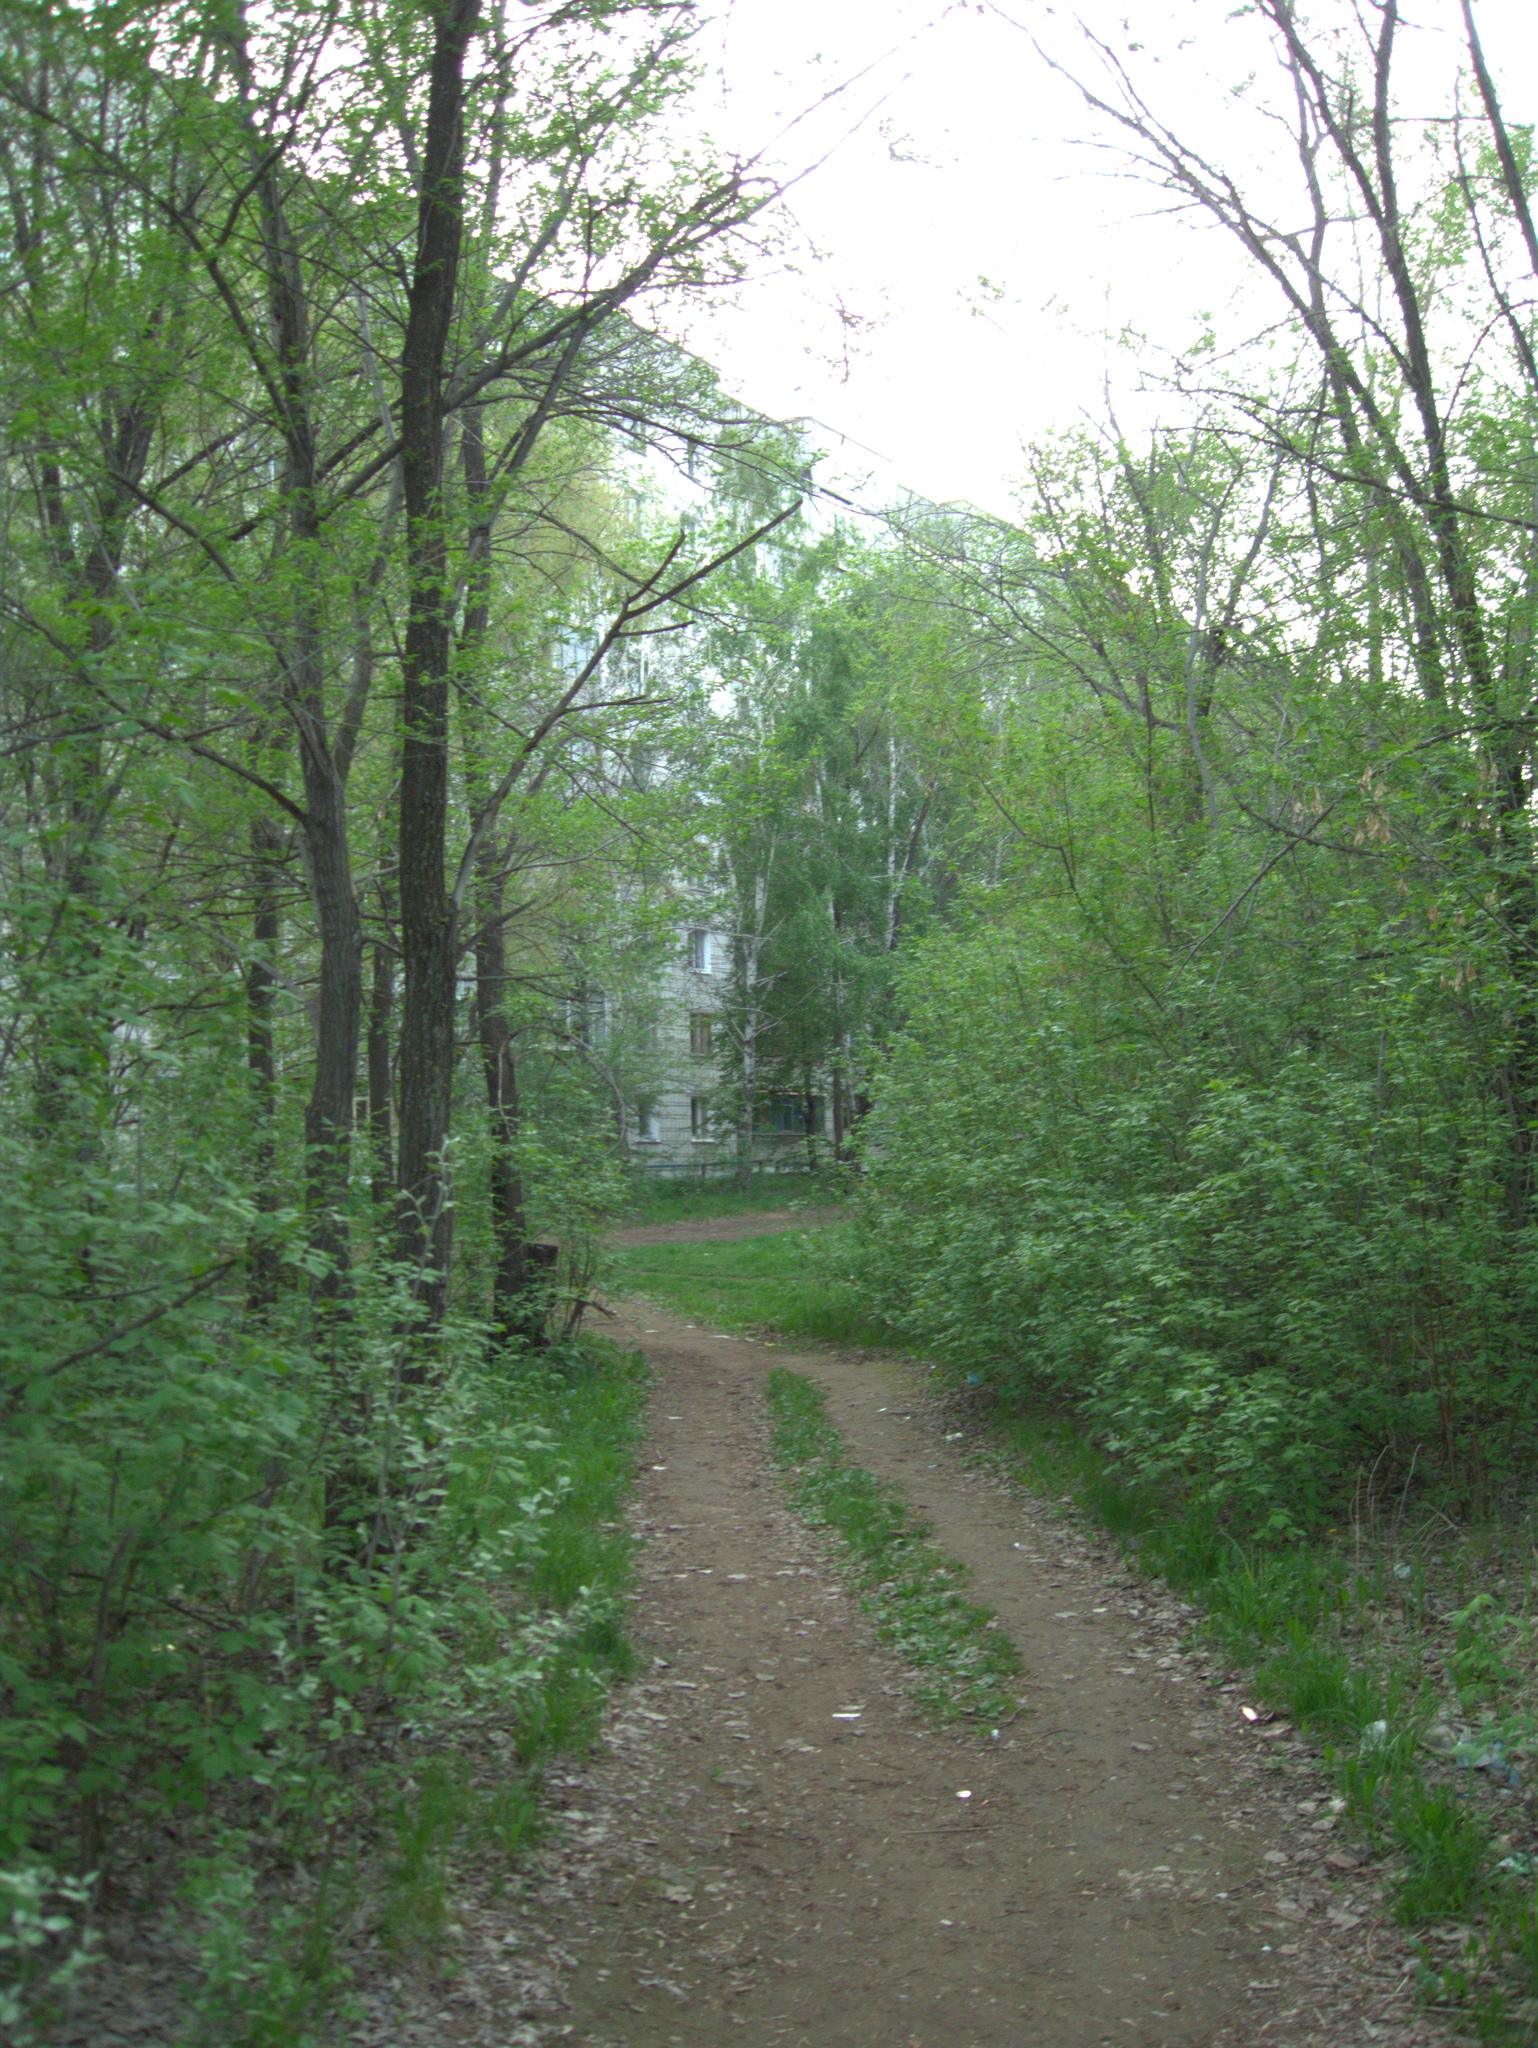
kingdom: Plantae
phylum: Tracheophyta
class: Magnoliopsida
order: Sapindales
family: Sapindaceae
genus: Acer
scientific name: Acer negundo
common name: Ashleaf maple
